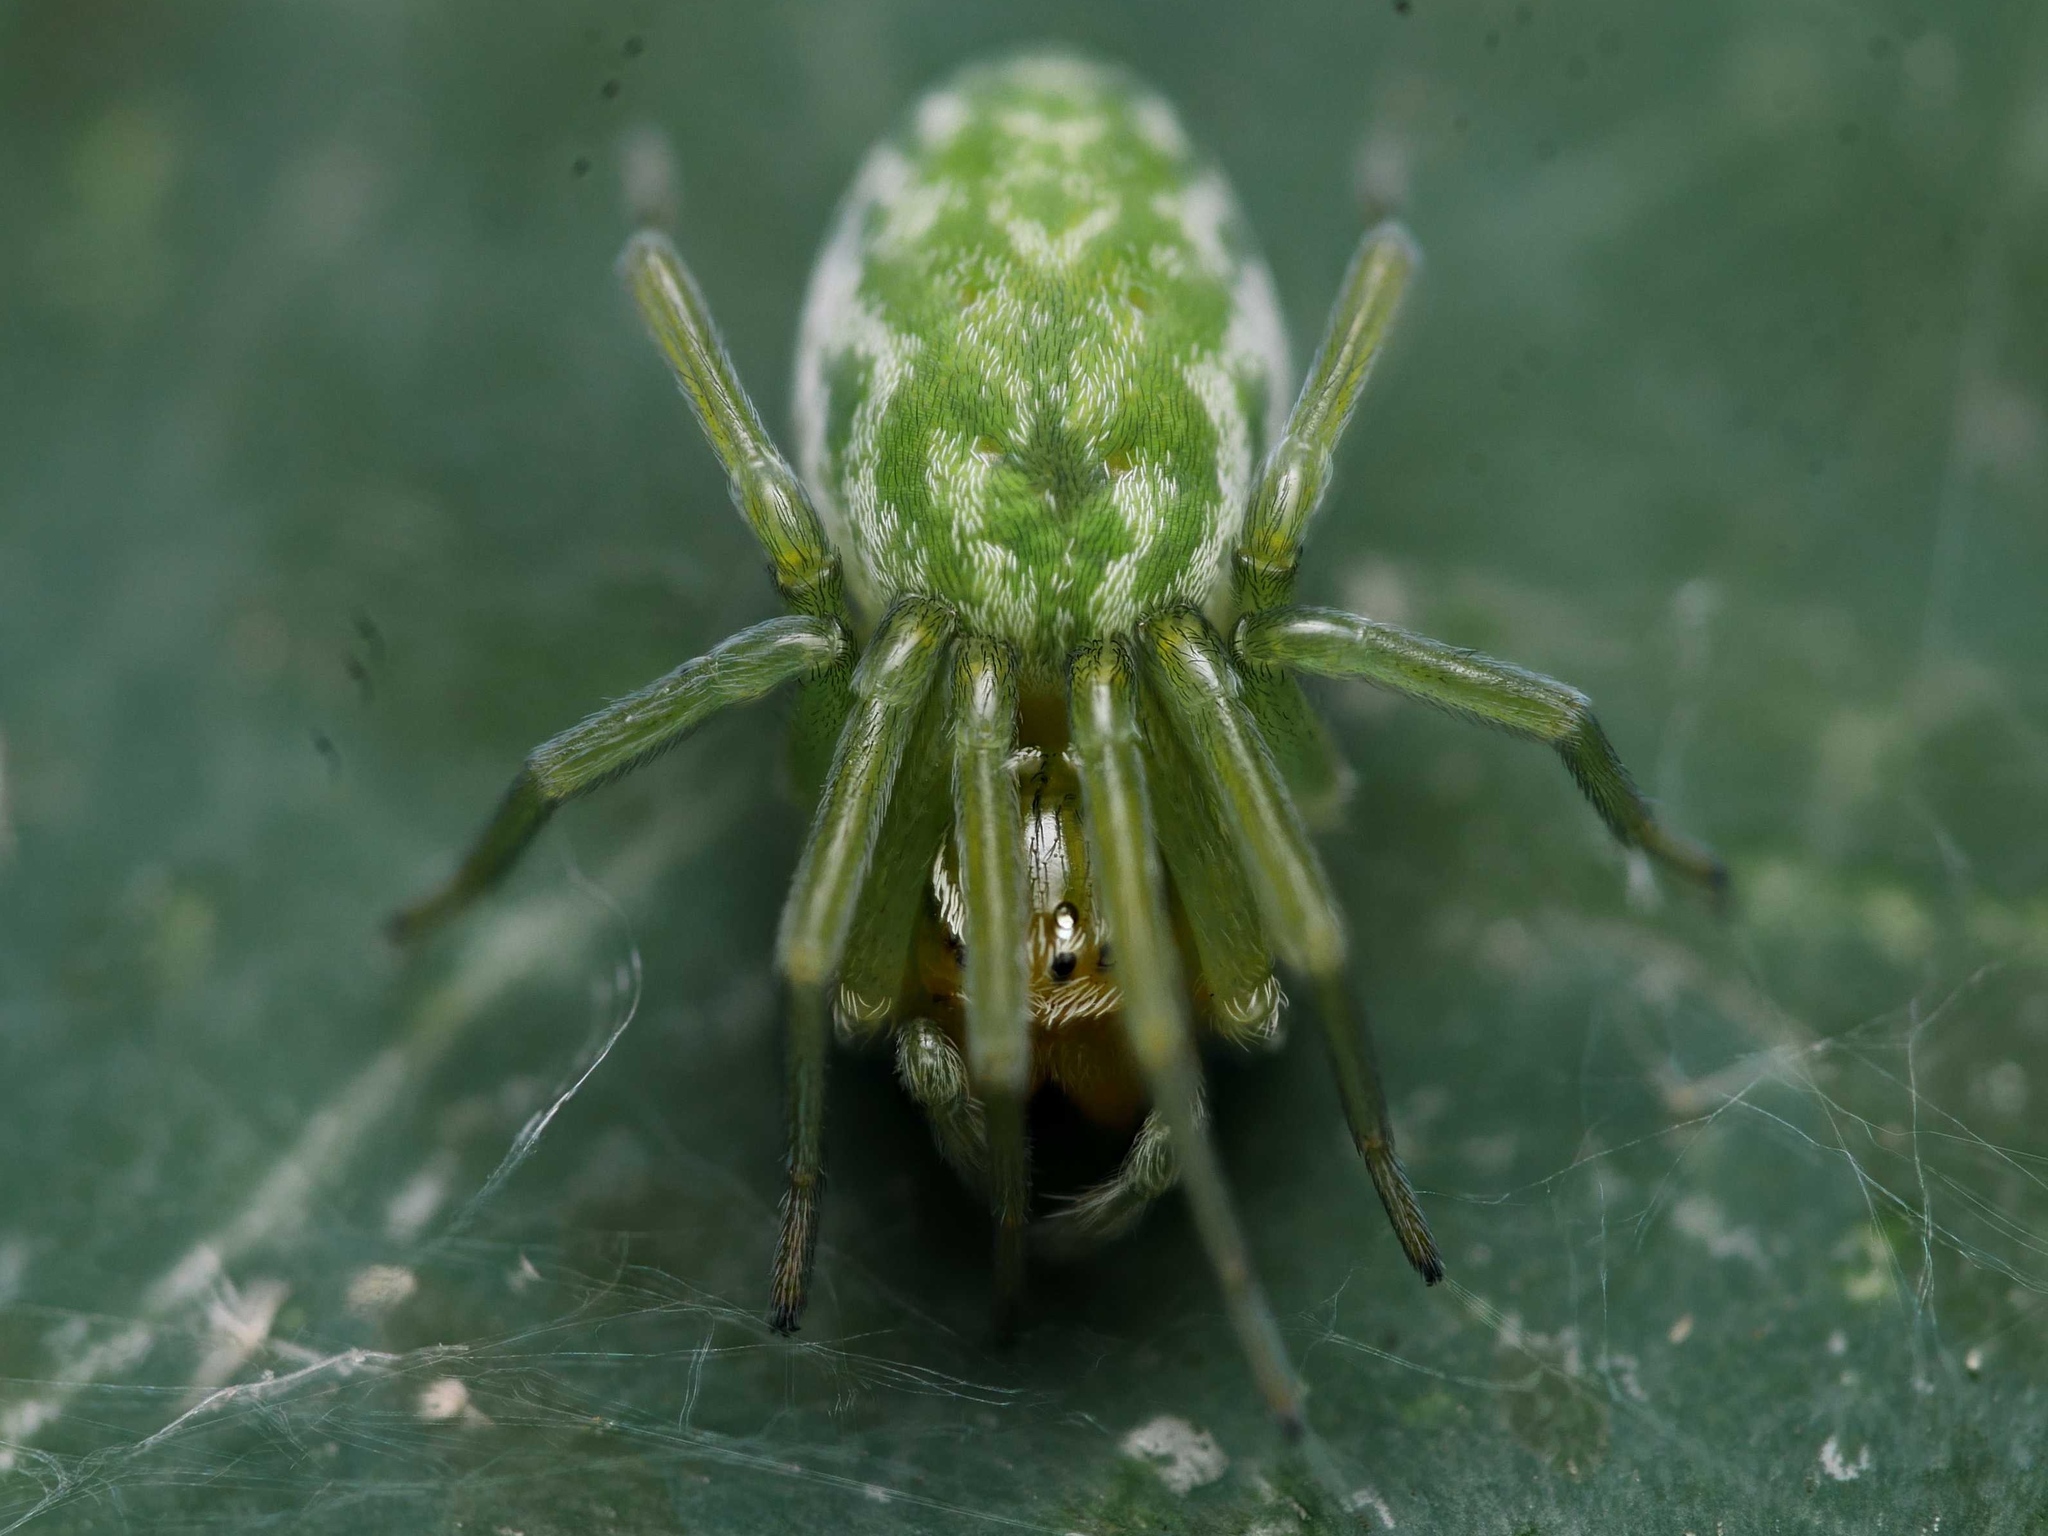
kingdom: Animalia
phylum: Arthropoda
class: Arachnida
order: Araneae
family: Dictynidae
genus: Nigma
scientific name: Nigma walckenaeri
